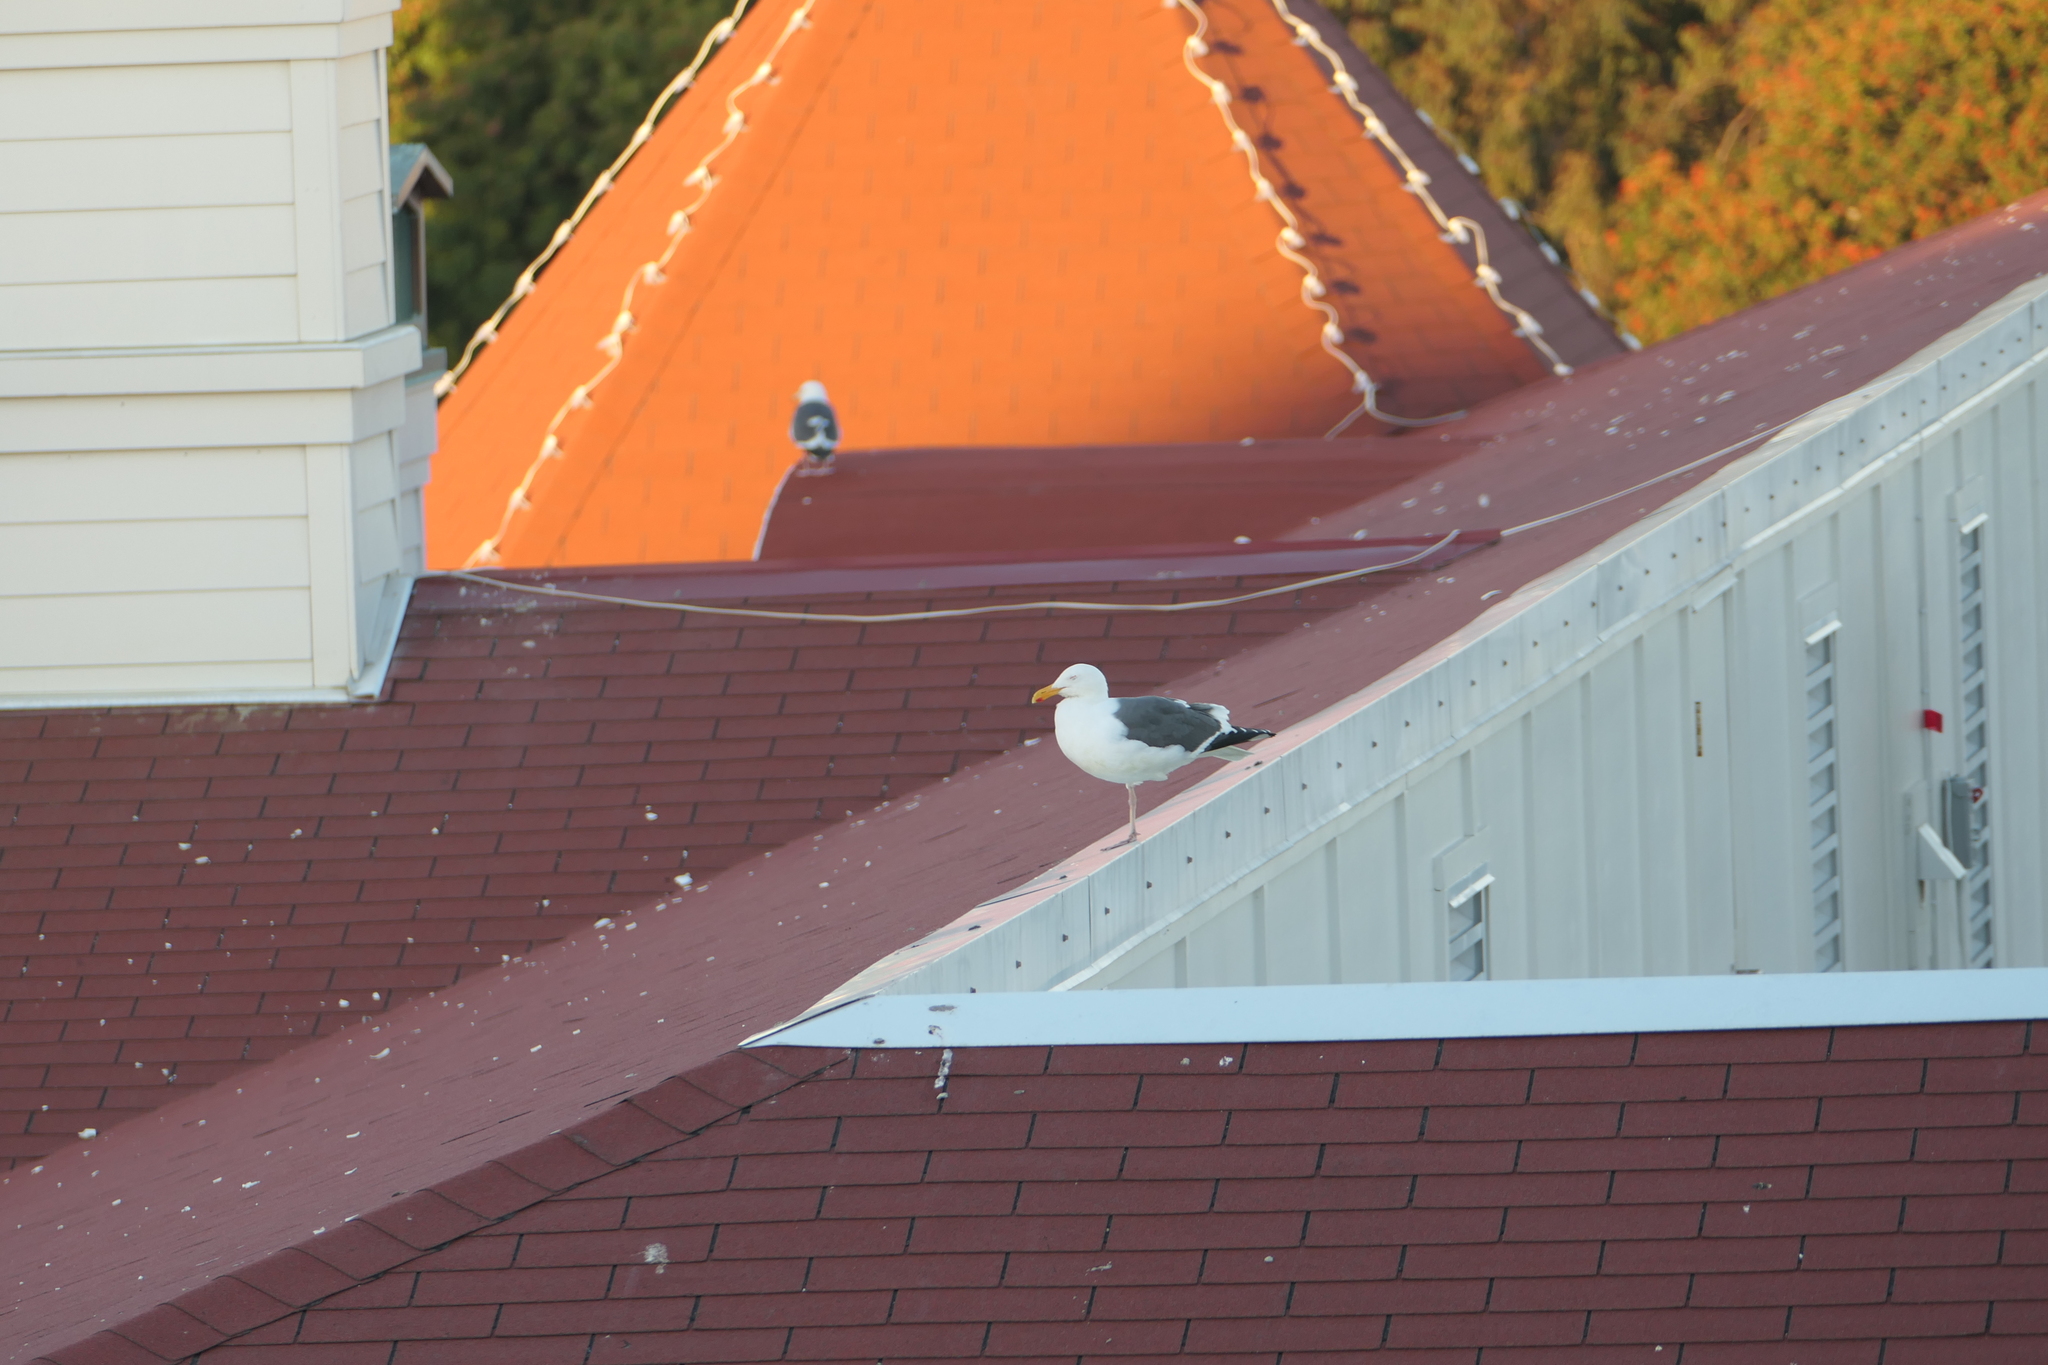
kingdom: Animalia
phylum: Chordata
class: Aves
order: Charadriiformes
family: Laridae
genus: Larus
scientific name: Larus occidentalis
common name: Western gull
